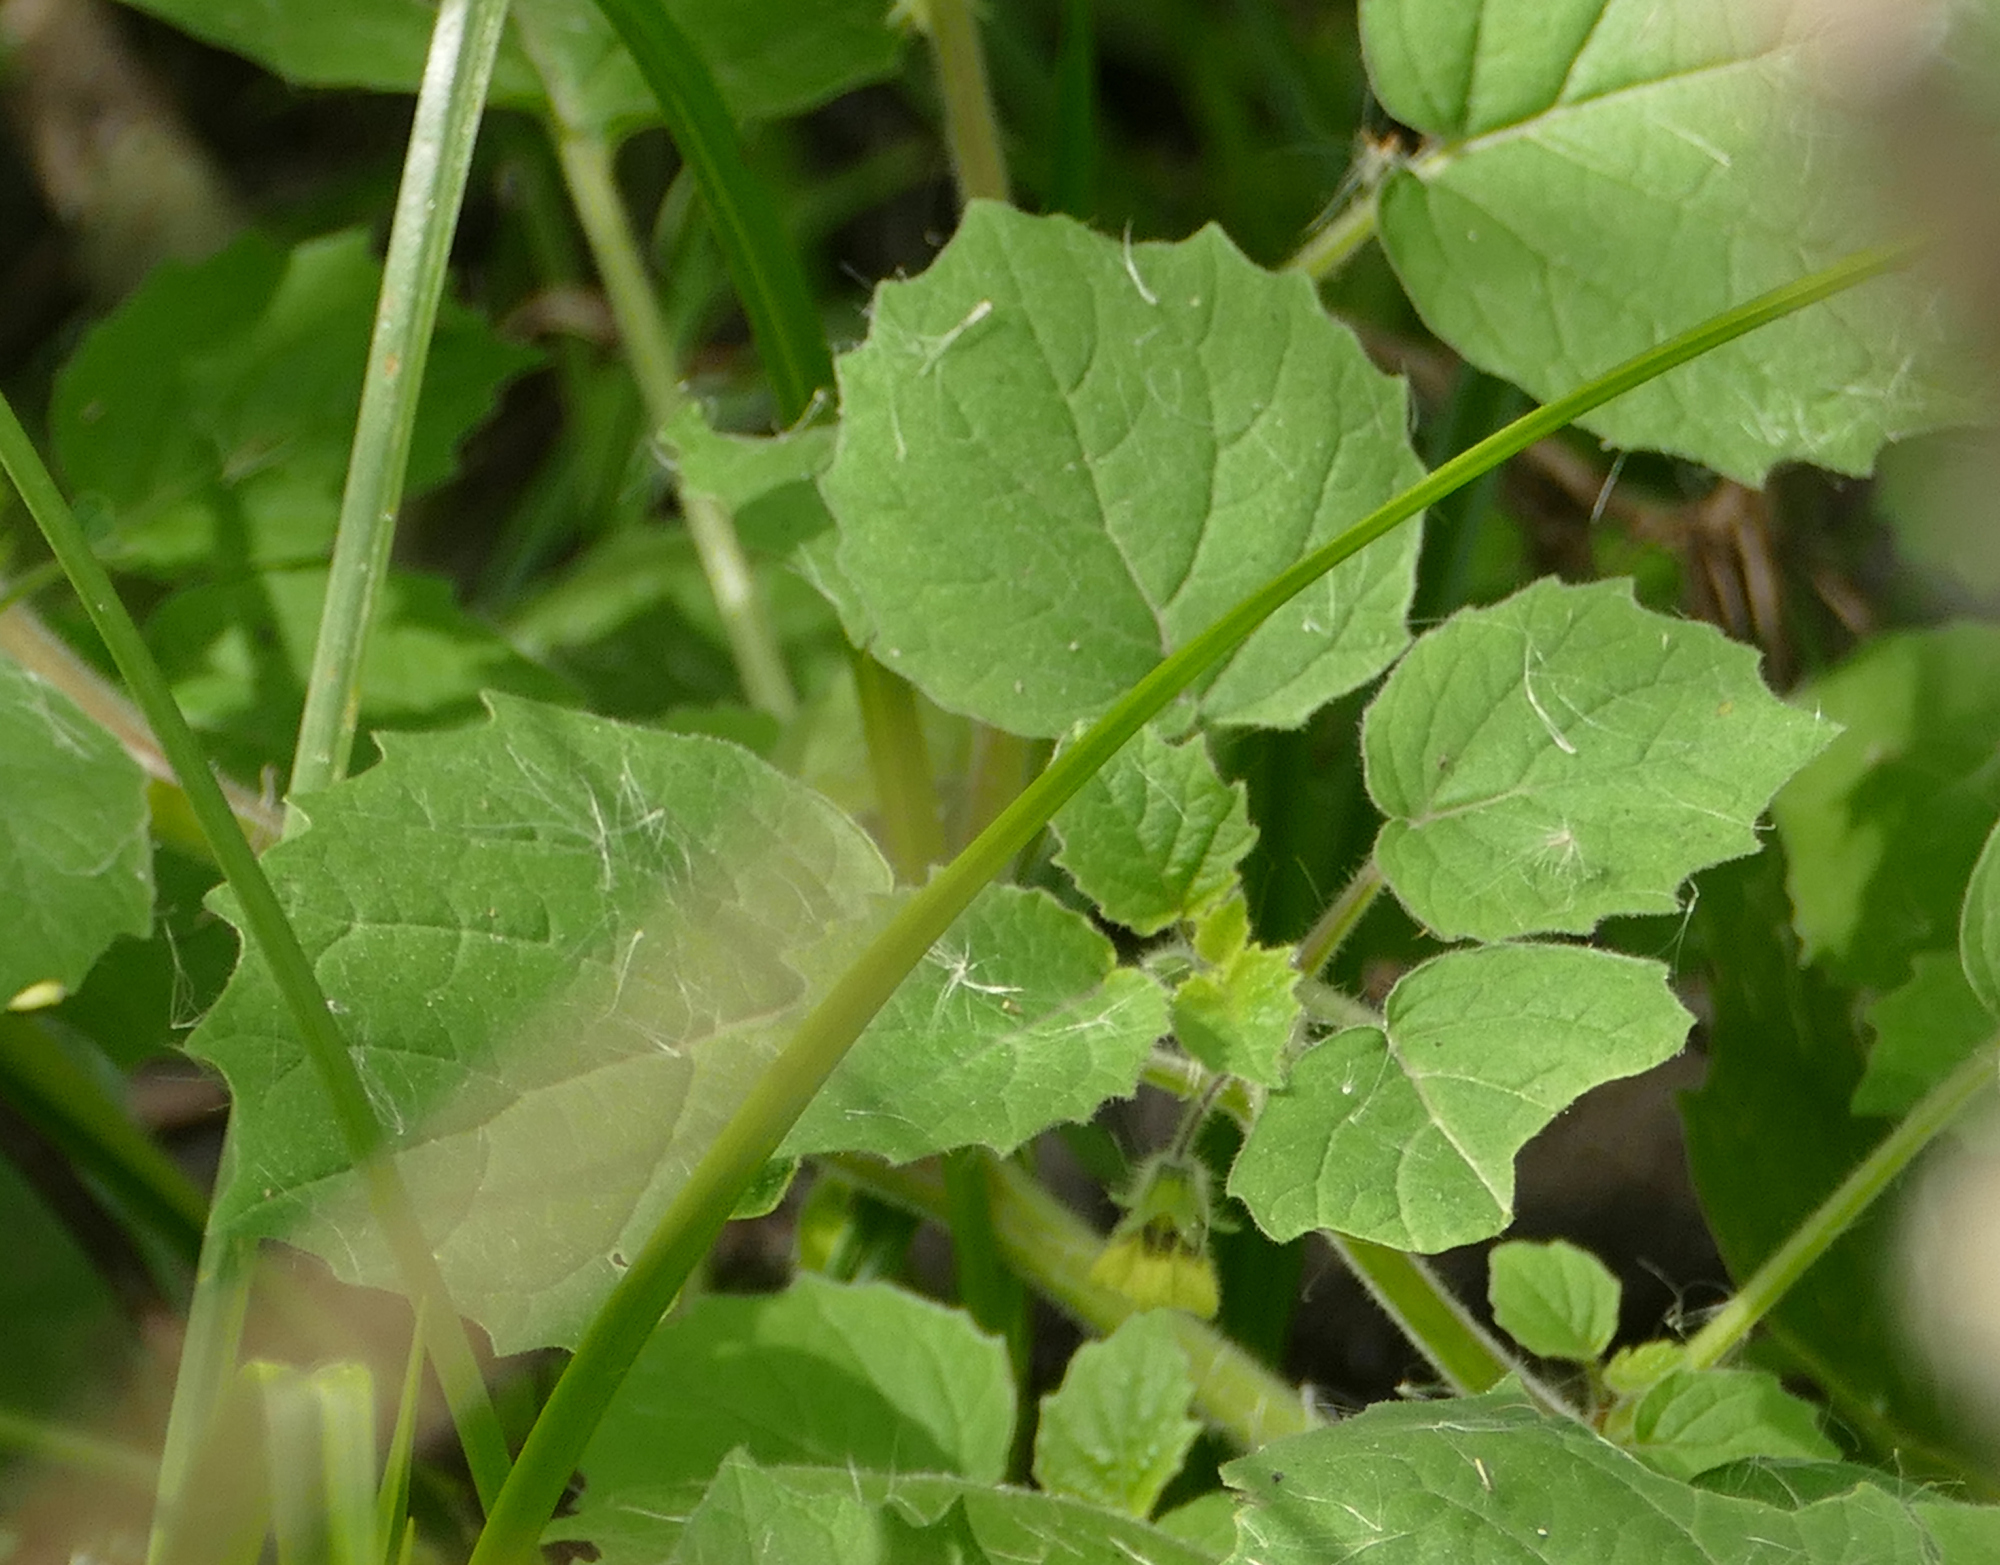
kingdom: Plantae
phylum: Tracheophyta
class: Magnoliopsida
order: Solanales
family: Solanaceae
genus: Physalis
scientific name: Physalis angulata
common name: Angular winter-cherry
